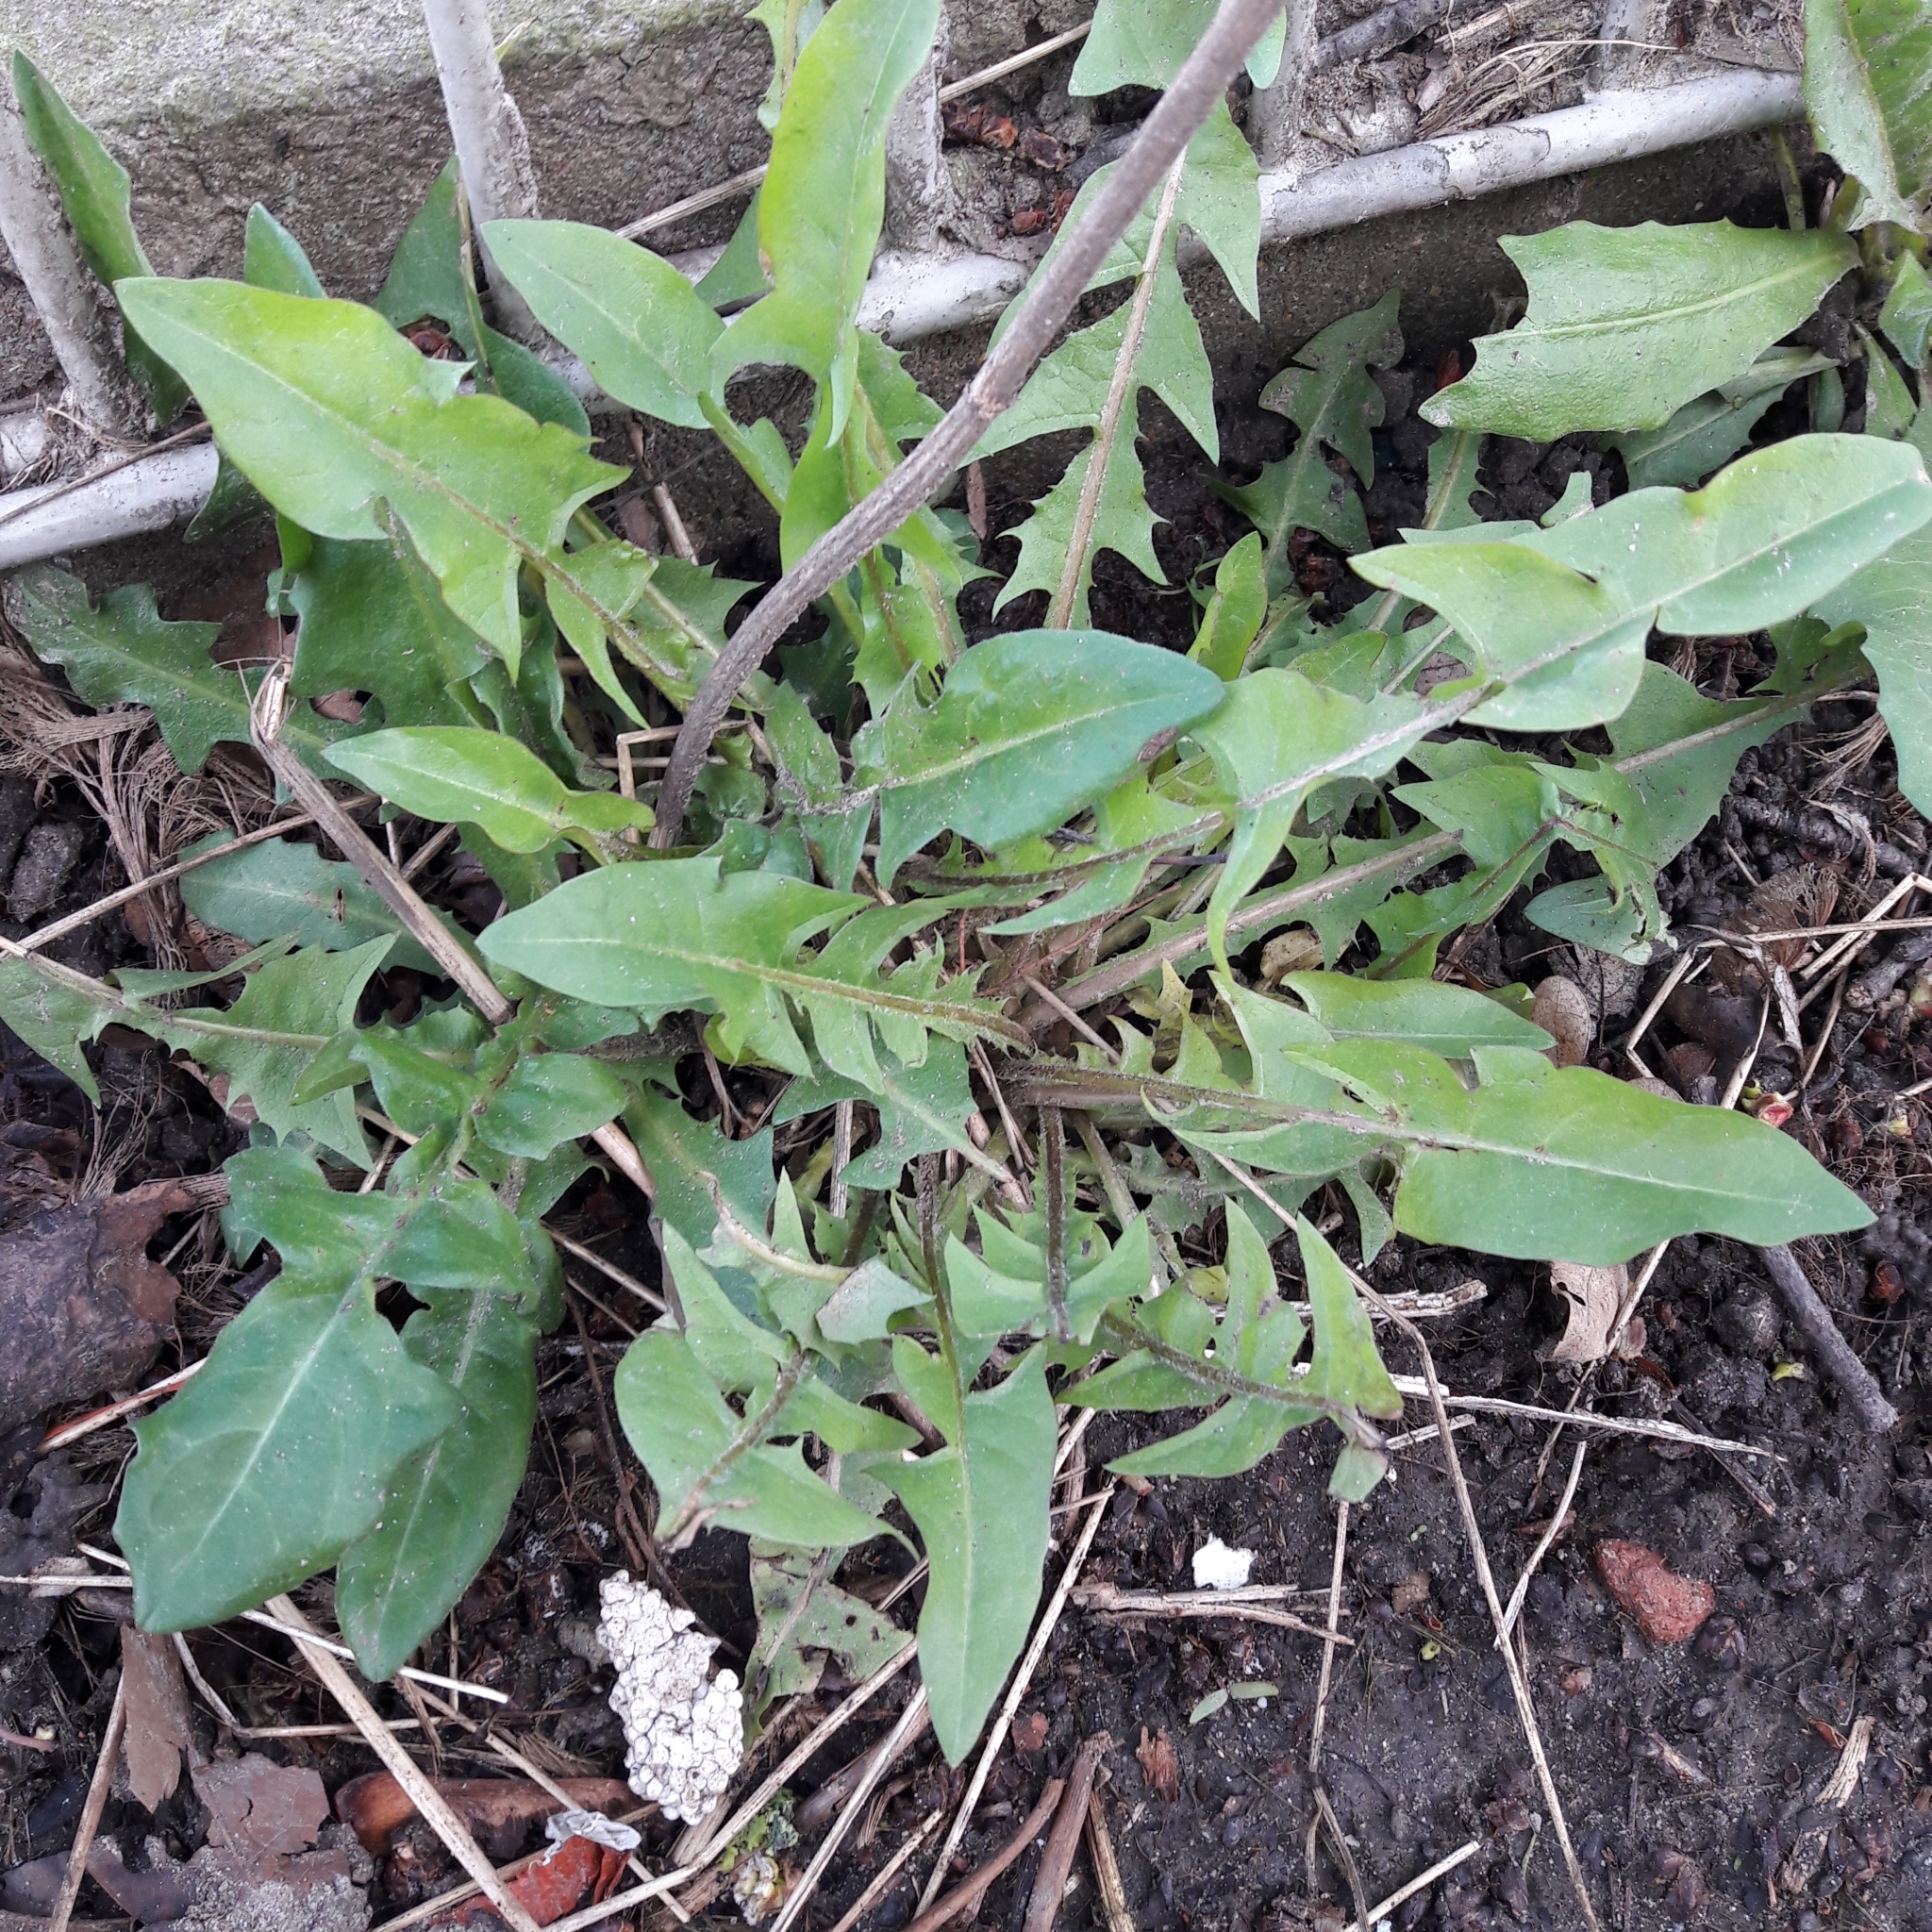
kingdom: Plantae
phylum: Tracheophyta
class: Magnoliopsida
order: Asterales
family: Asteraceae
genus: Taraxacum
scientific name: Taraxacum officinale
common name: Common dandelion
